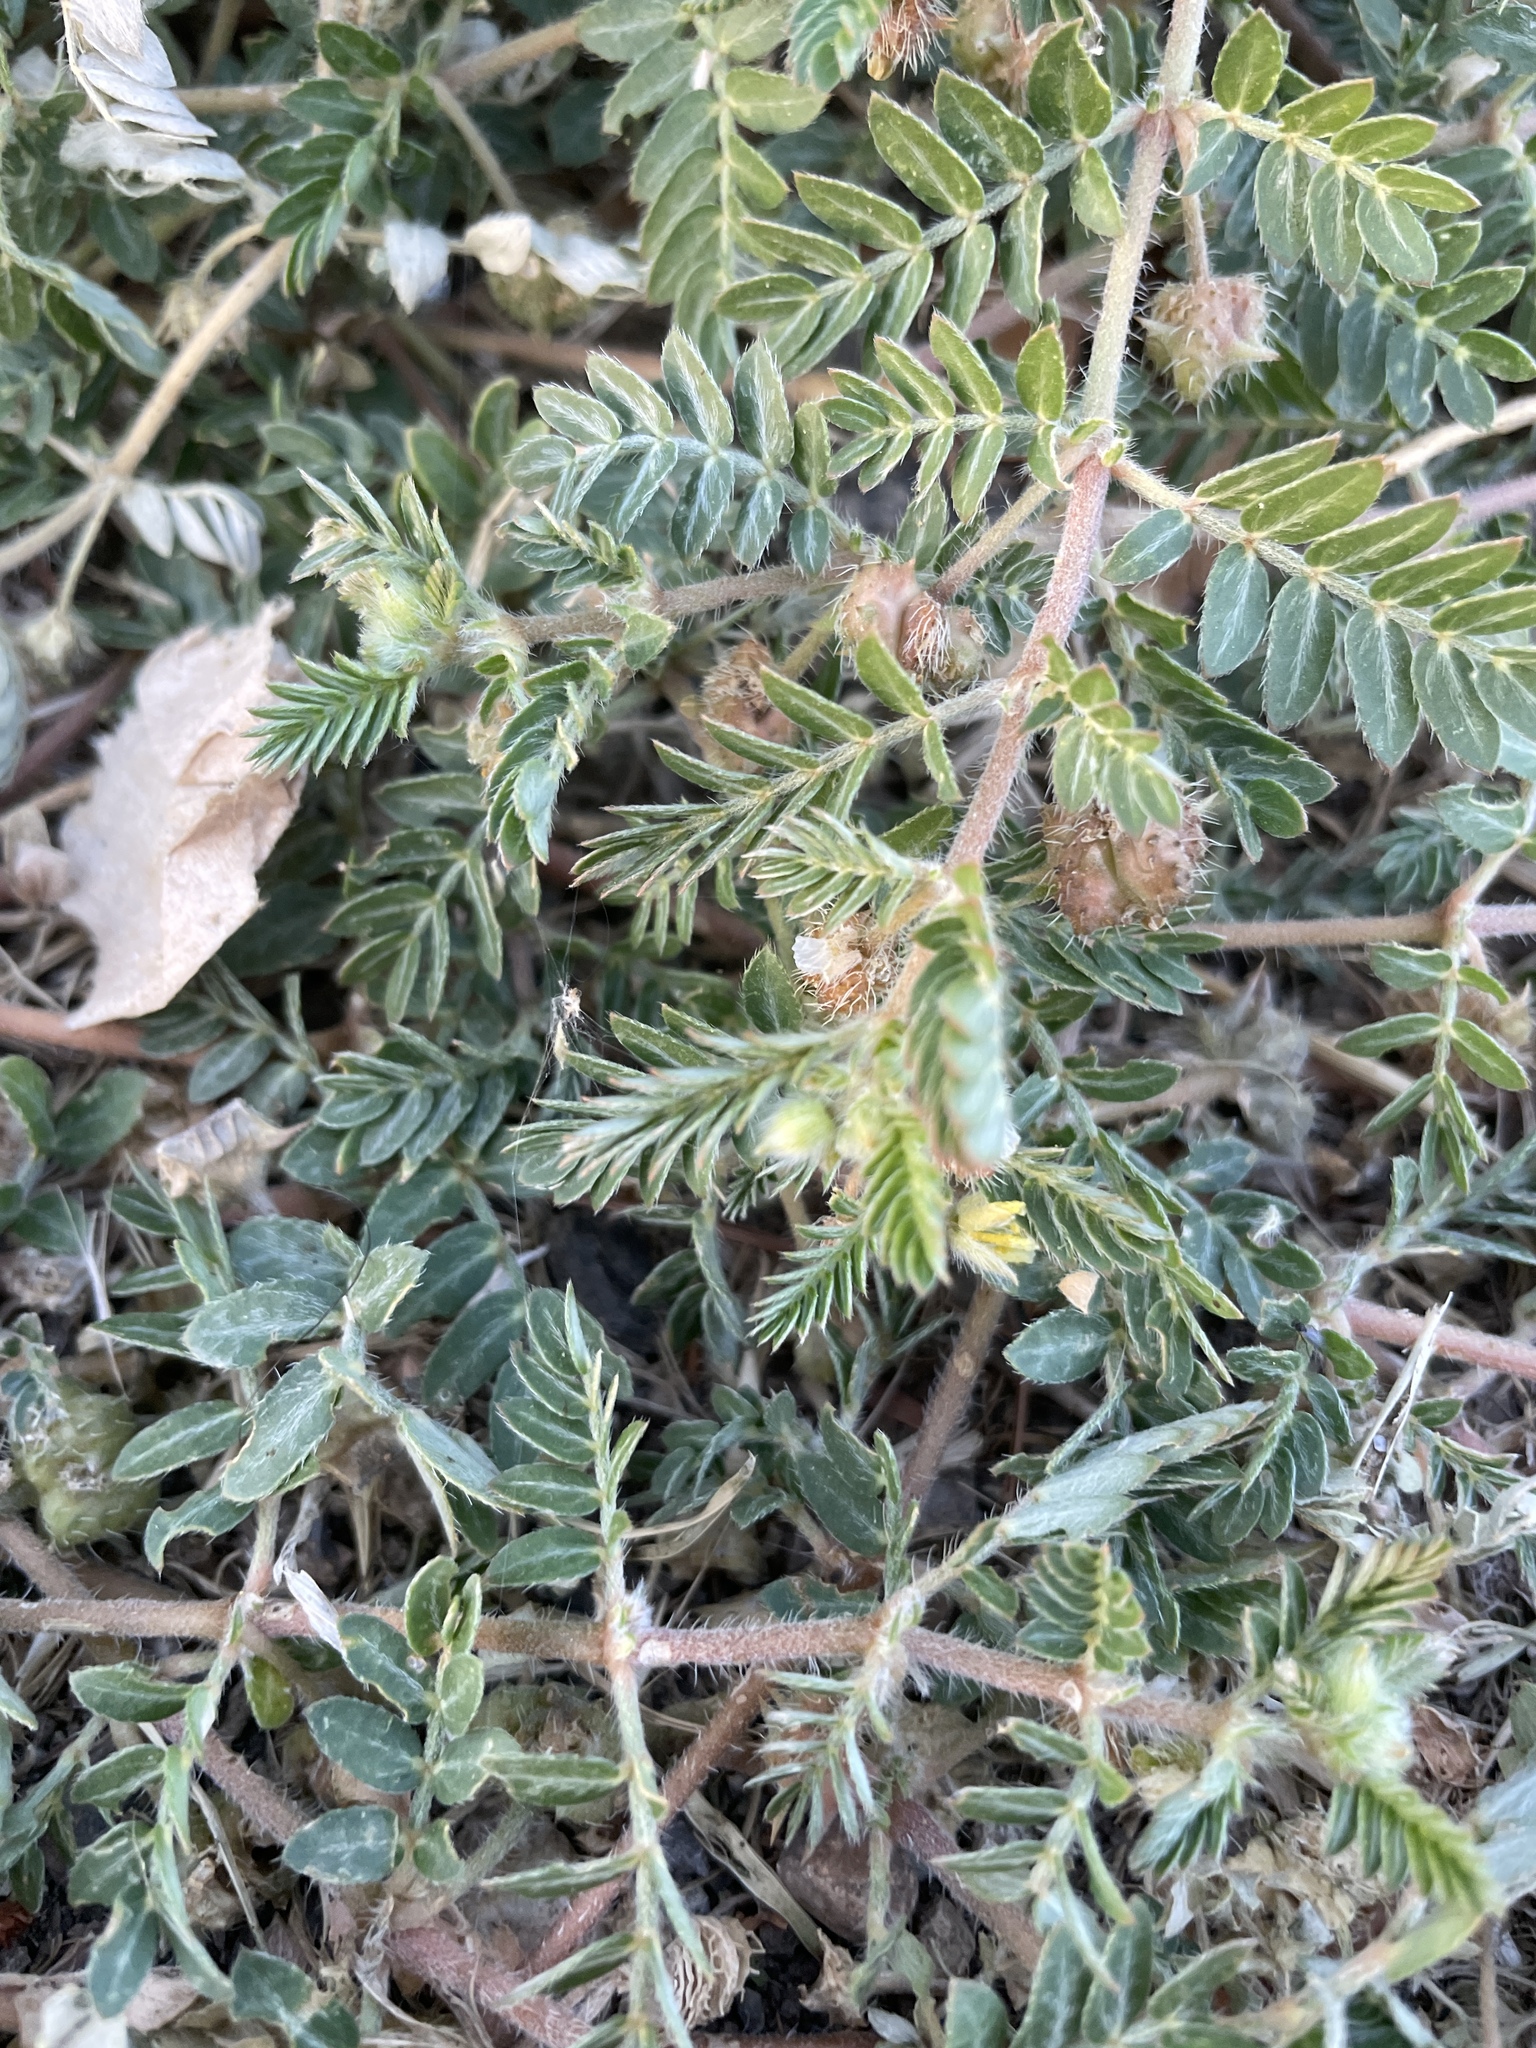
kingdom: Plantae
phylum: Tracheophyta
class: Magnoliopsida
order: Zygophyllales
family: Zygophyllaceae
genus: Tribulus
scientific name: Tribulus terrestris
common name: Puncturevine
